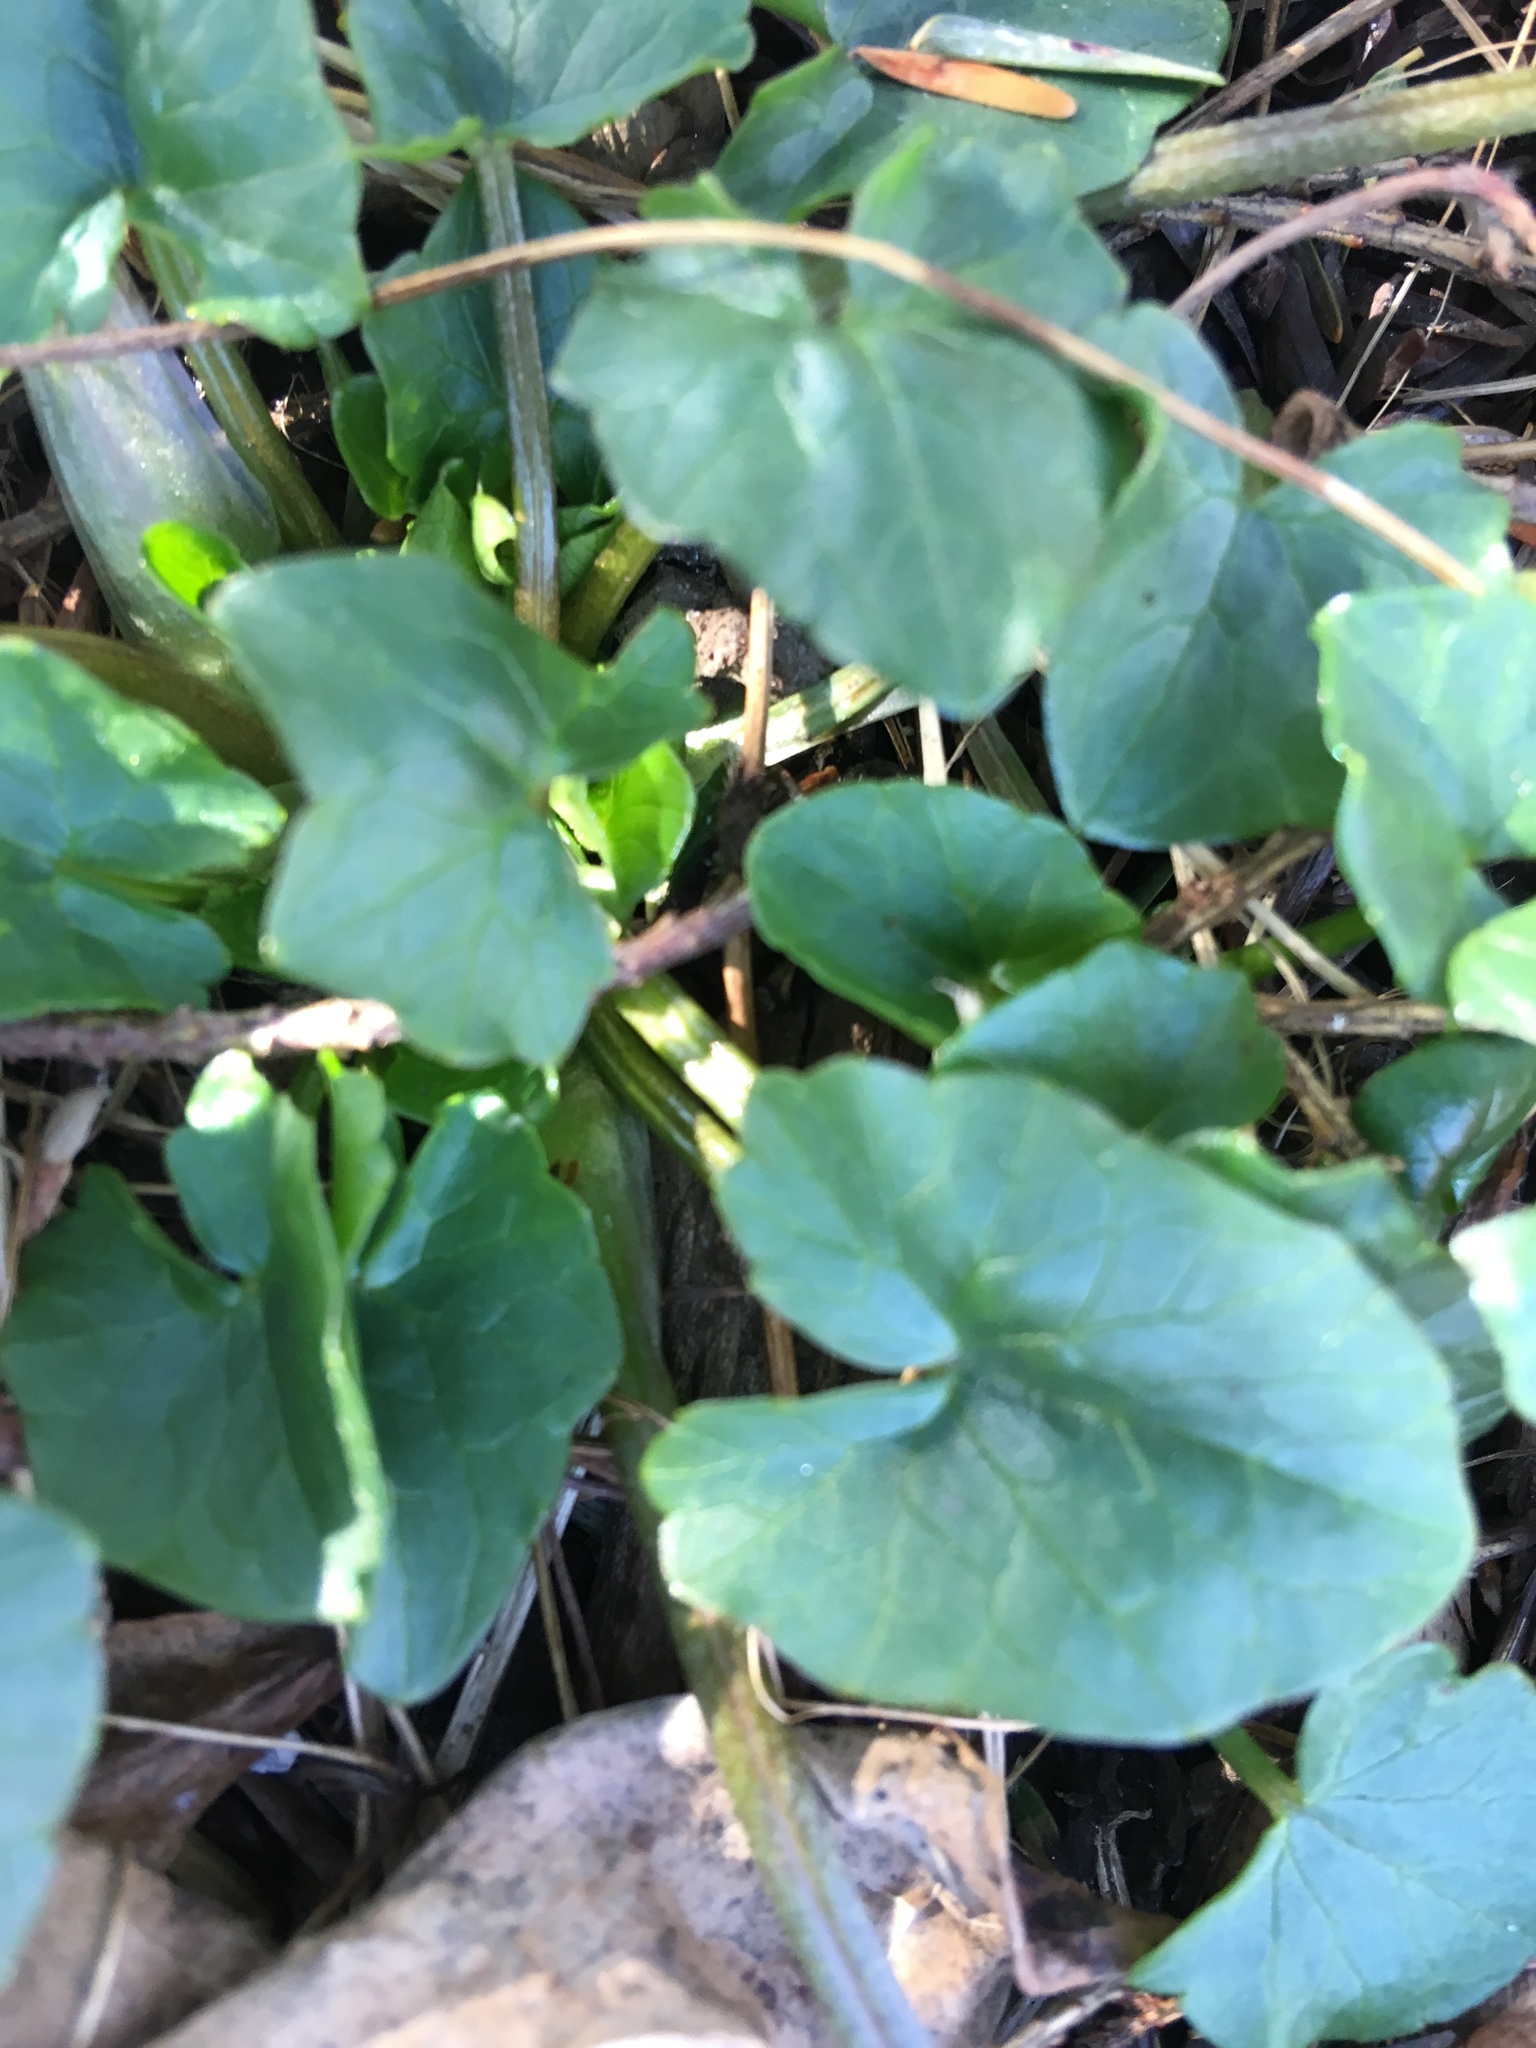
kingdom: Plantae
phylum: Tracheophyta
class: Magnoliopsida
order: Ranunculales
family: Ranunculaceae
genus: Ficaria
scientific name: Ficaria verna
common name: Lesser celandine
